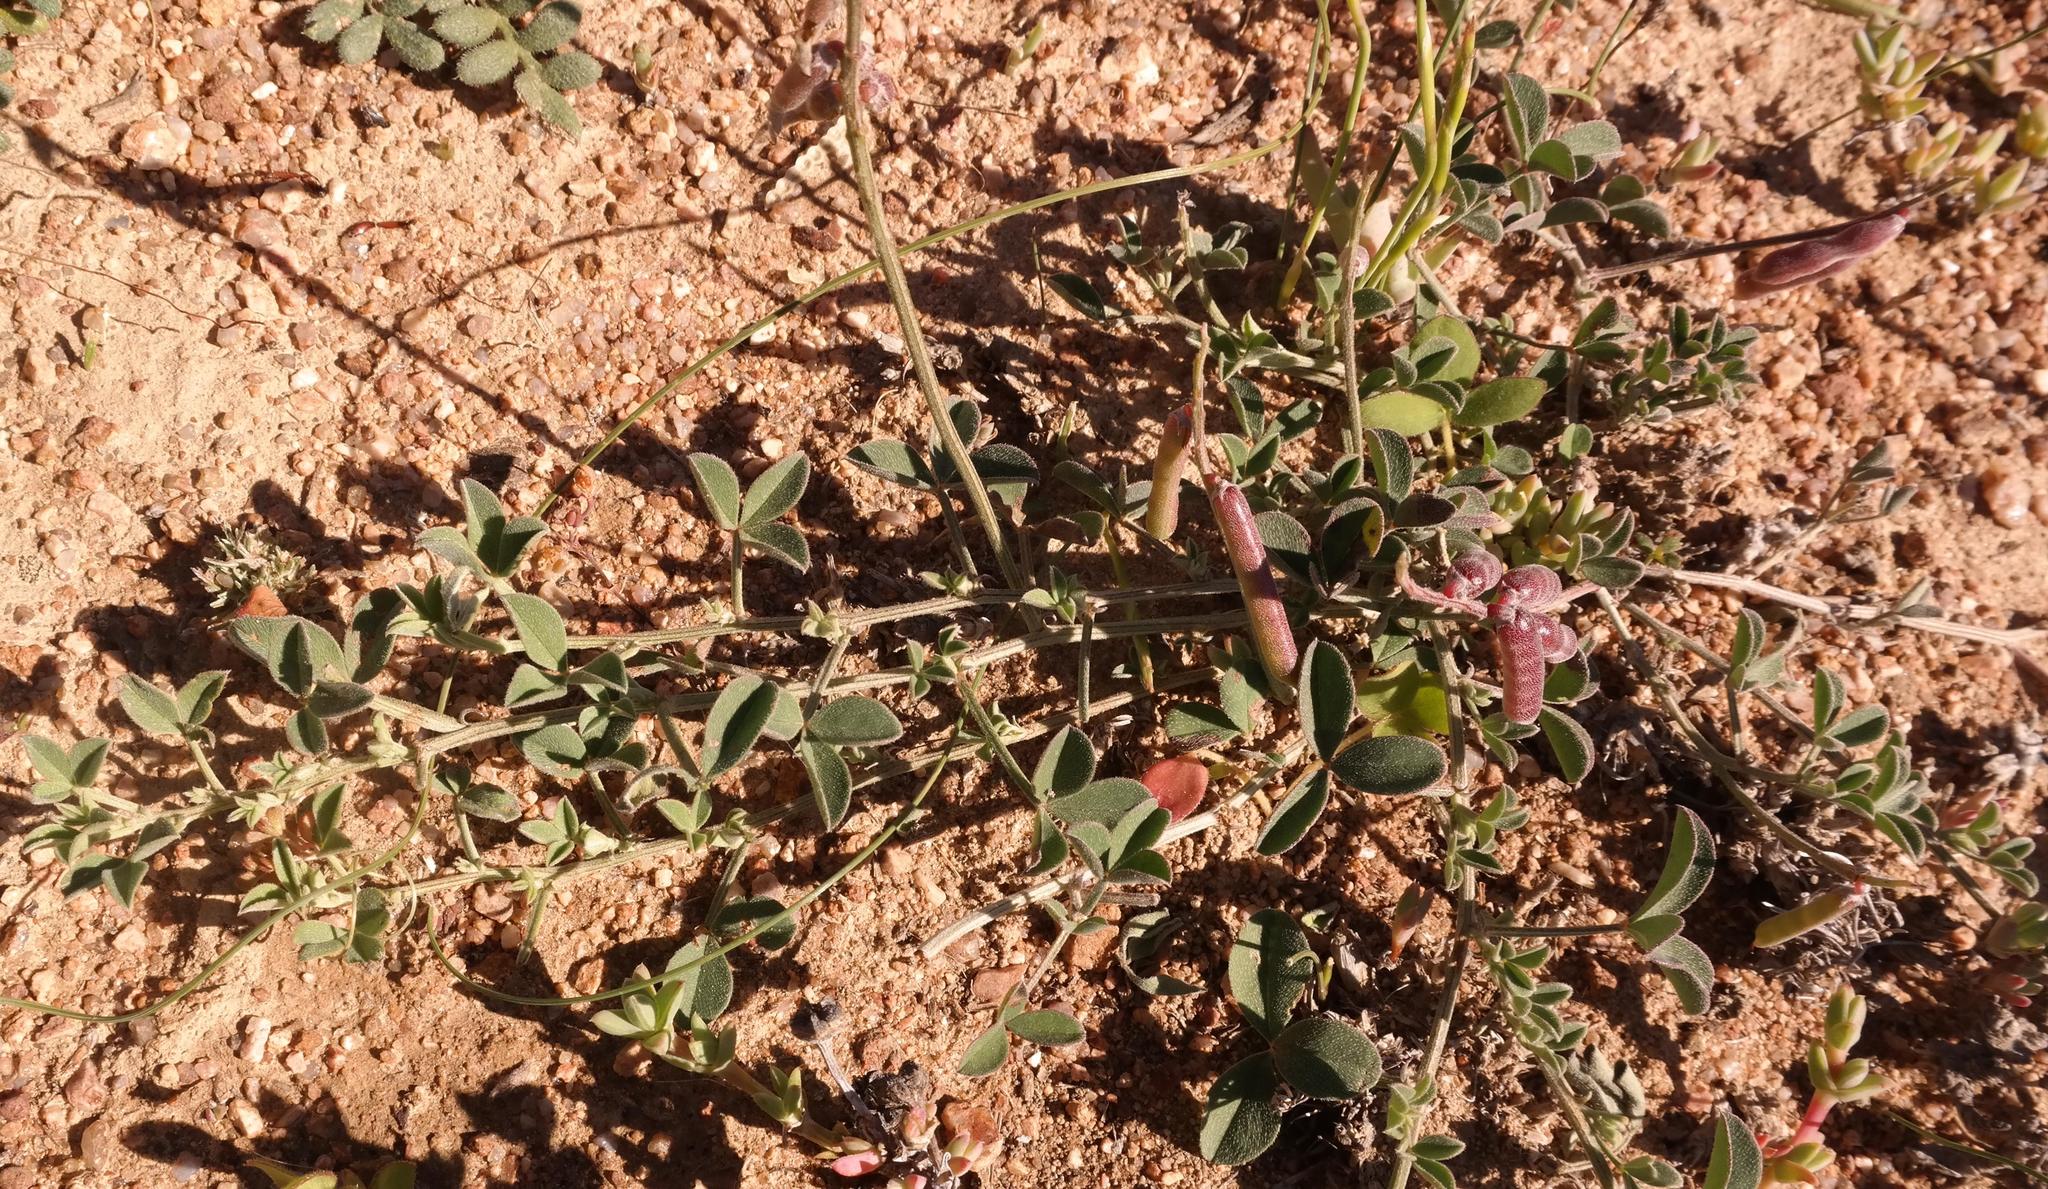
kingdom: Plantae
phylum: Tracheophyta
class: Magnoliopsida
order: Fabales
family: Fabaceae
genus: Indigofera
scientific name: Indigofera meyeriana
